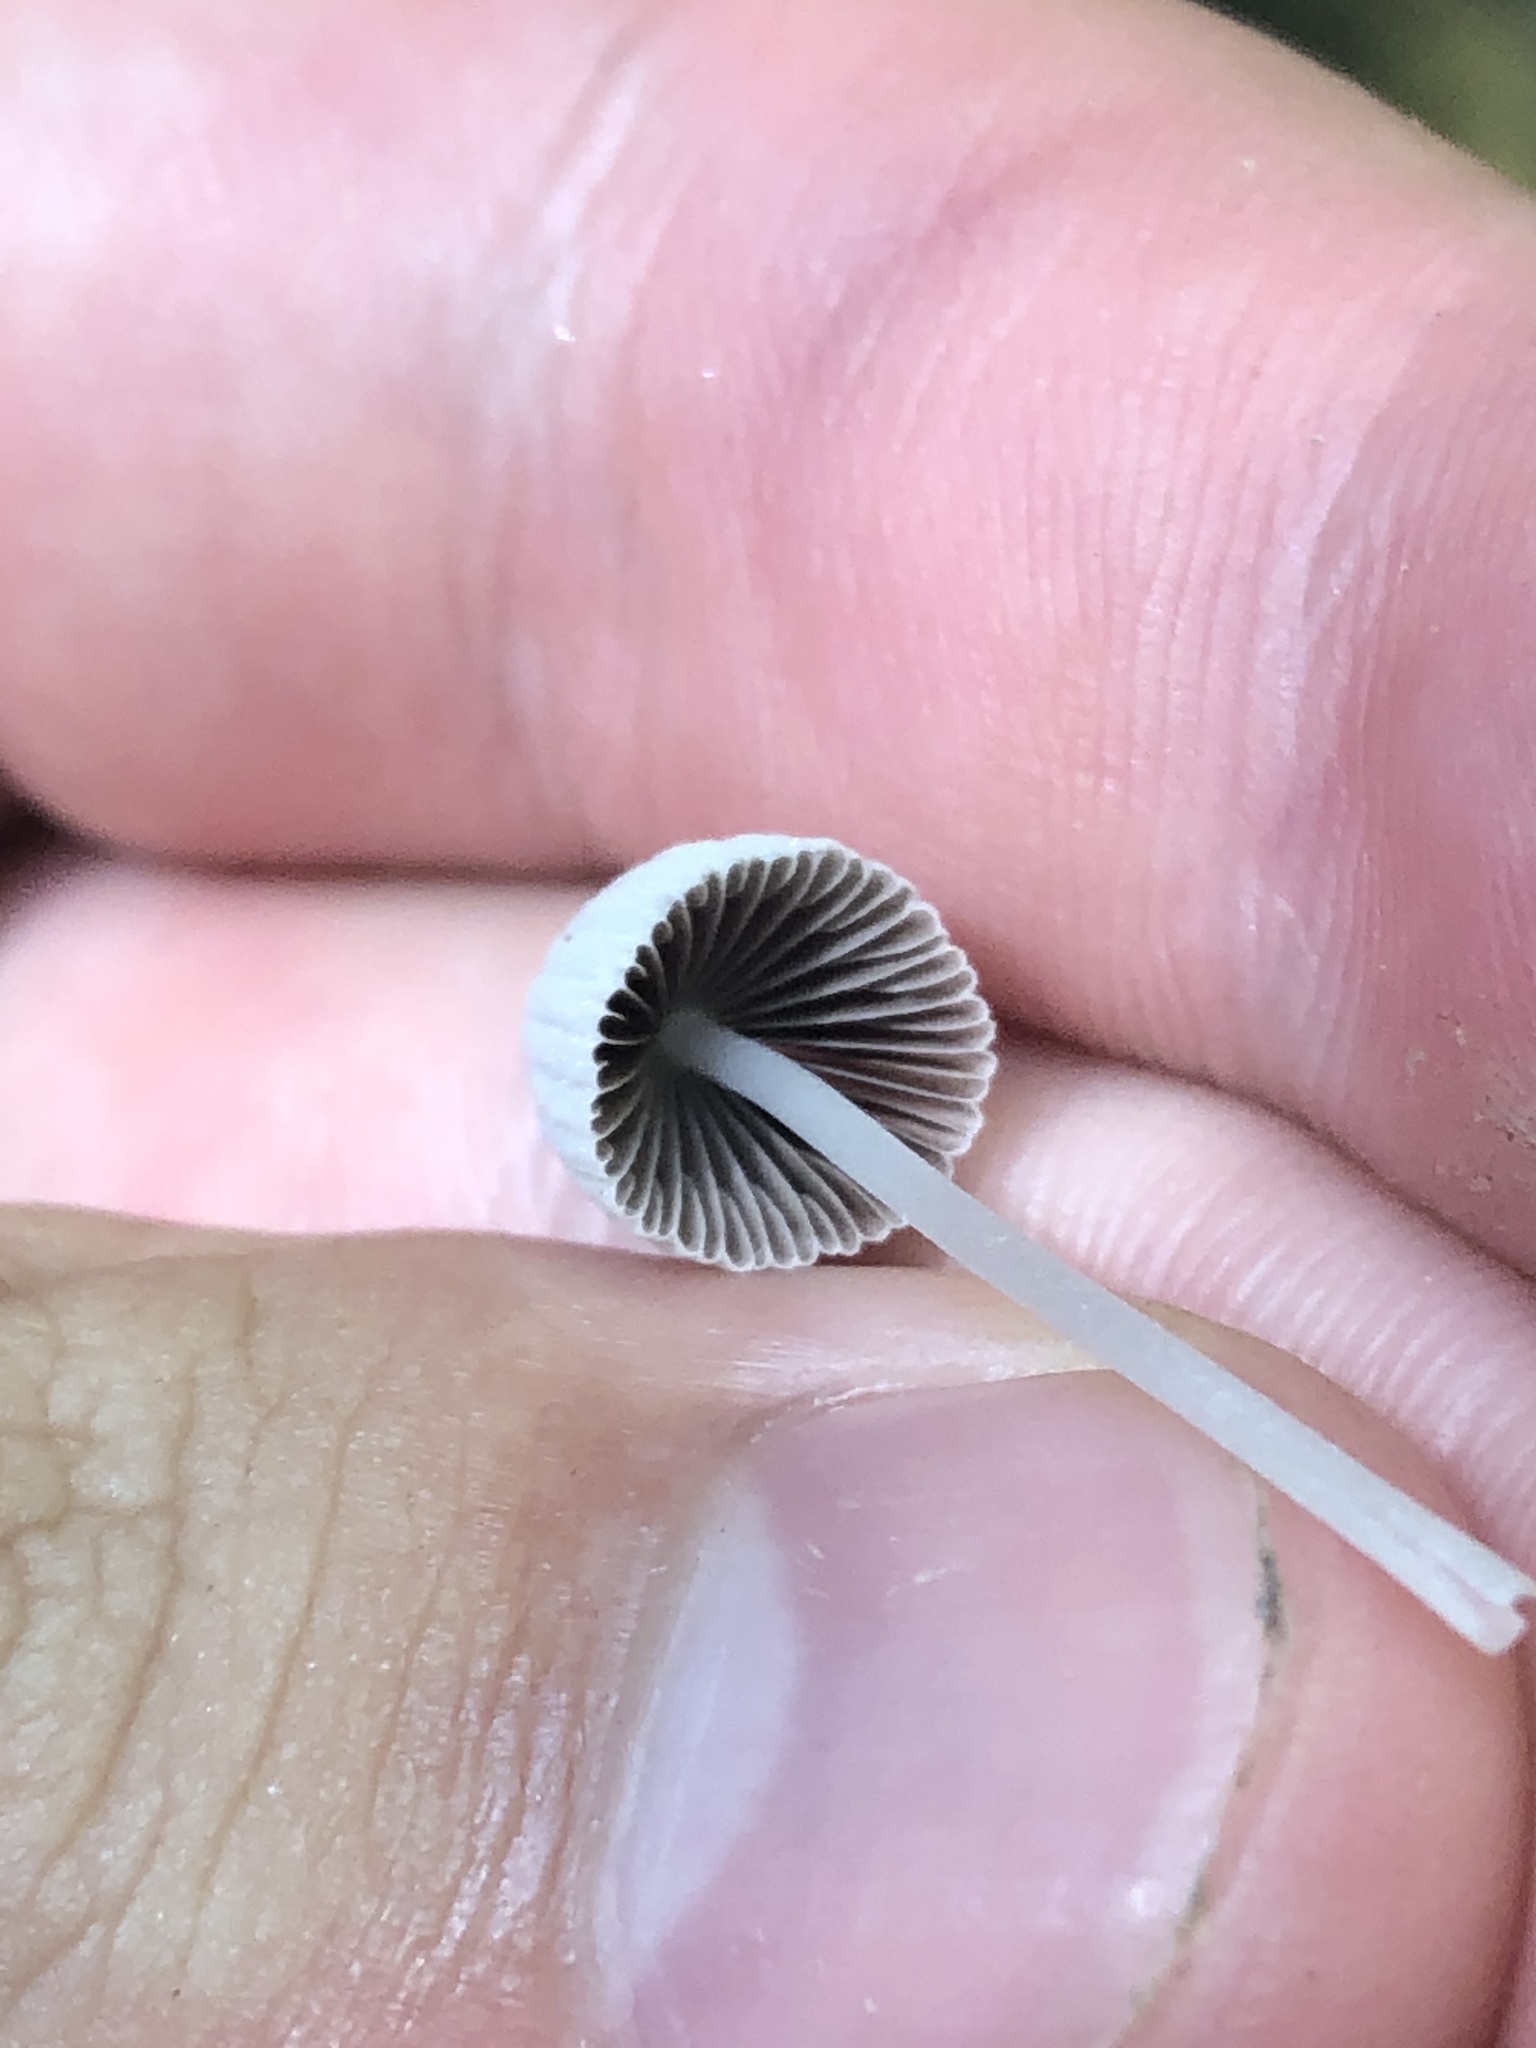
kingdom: Fungi
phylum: Basidiomycota
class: Agaricomycetes
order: Agaricales
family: Psathyrellaceae
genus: Coprinellus
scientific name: Coprinellus disseminatus
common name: Fairies' bonnets
